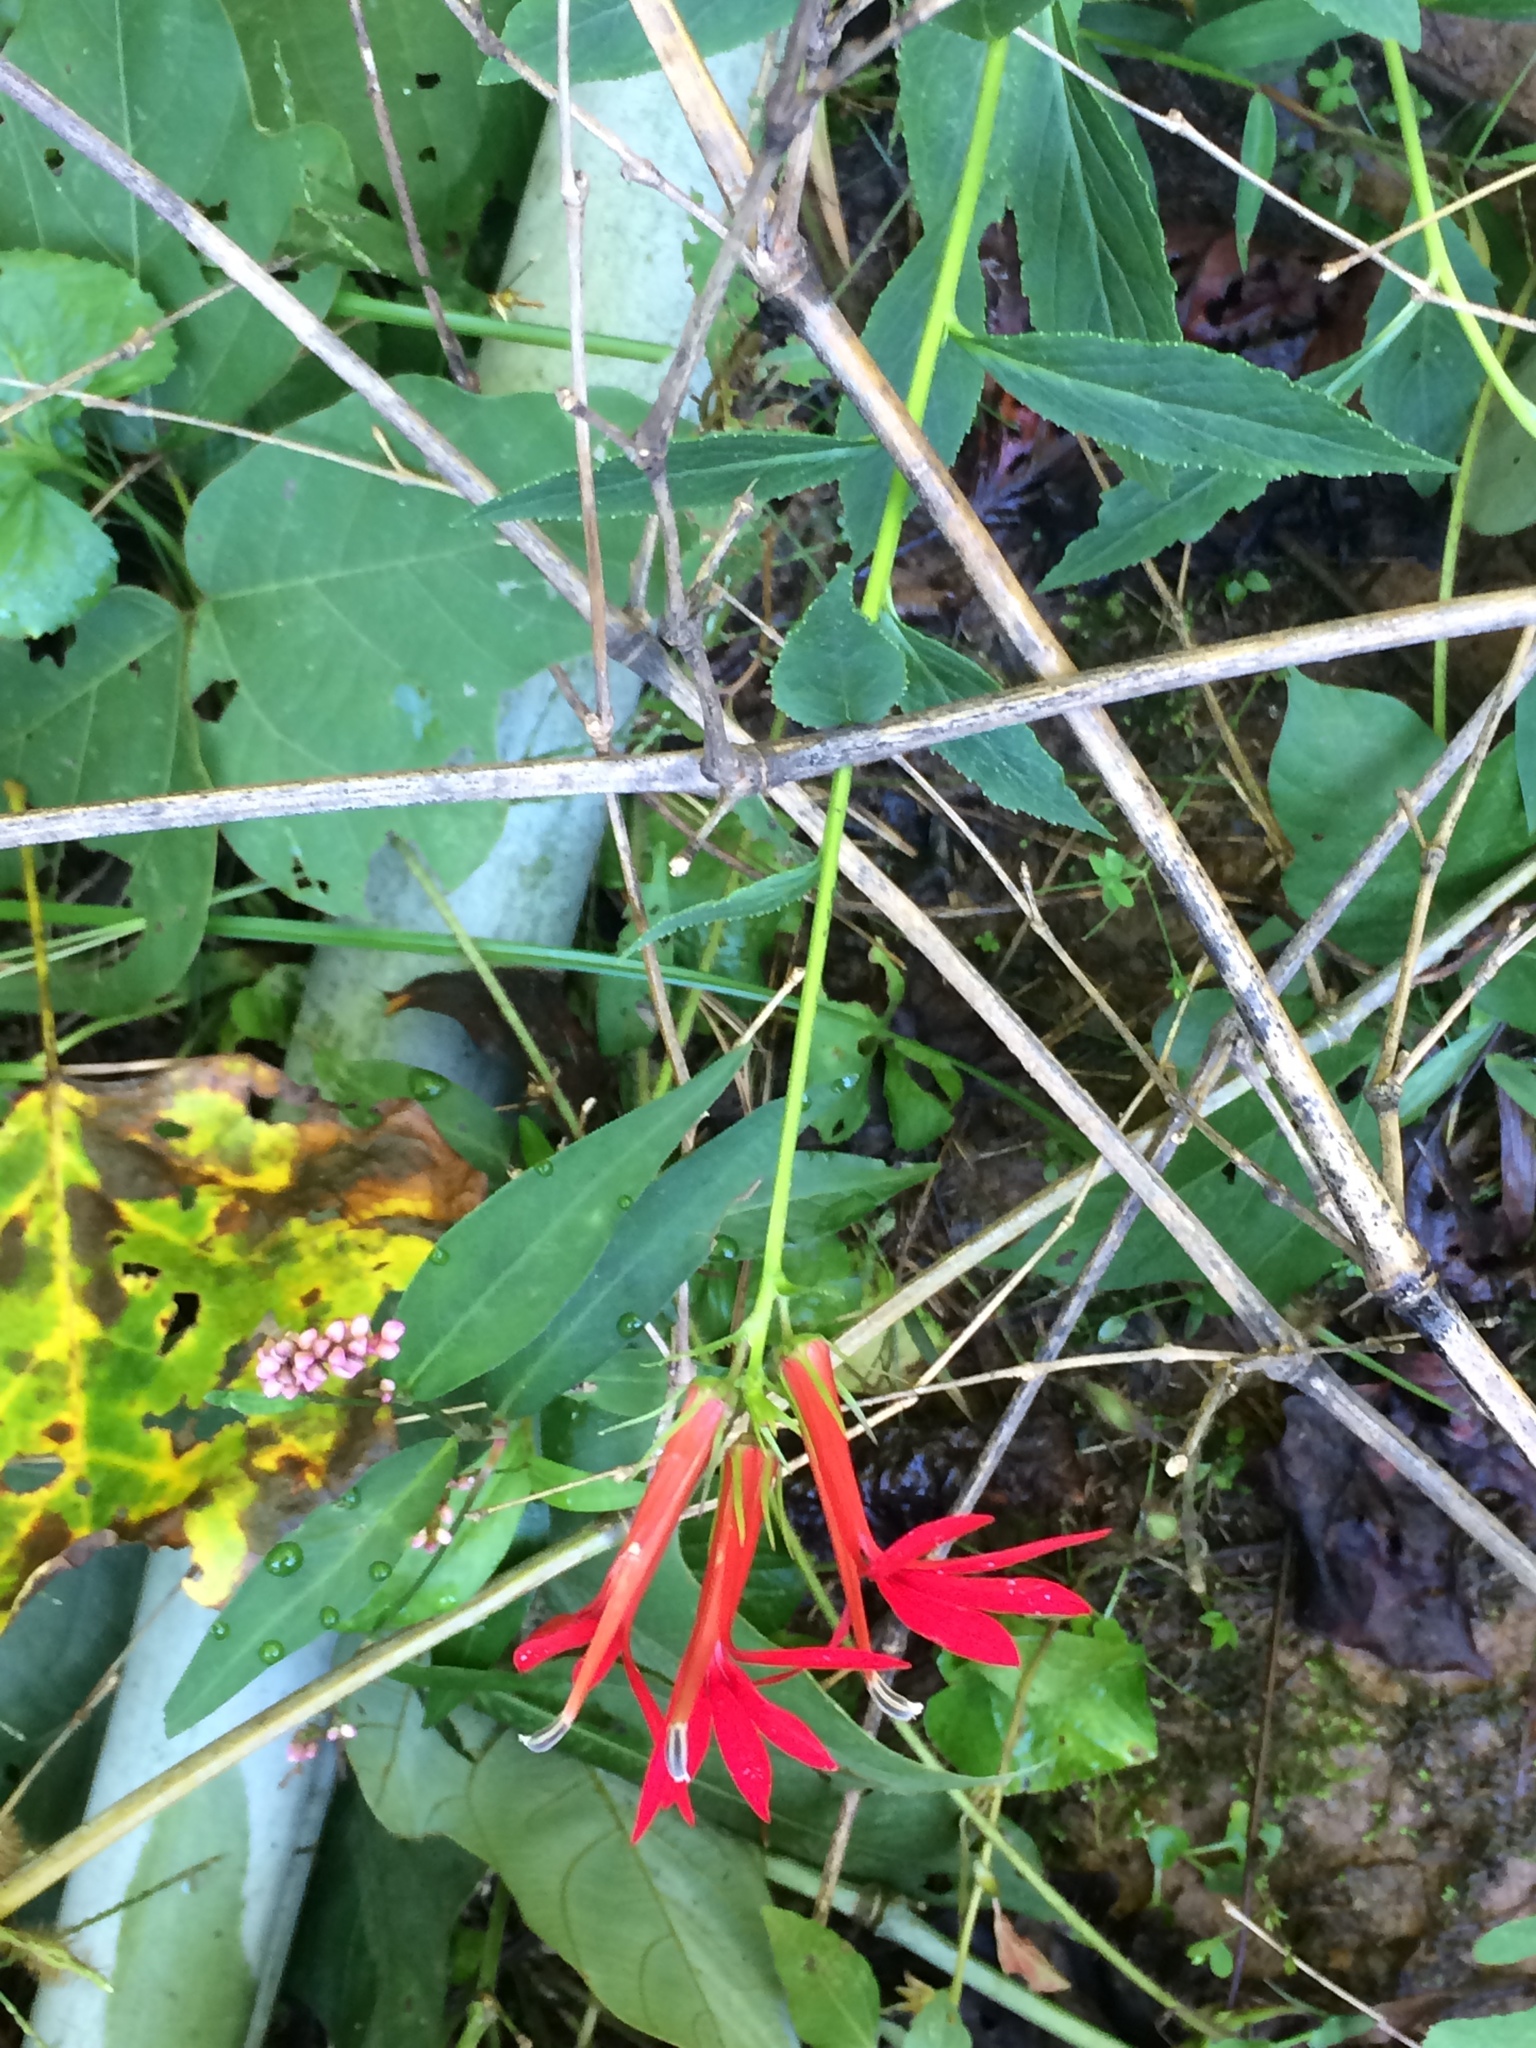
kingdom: Plantae
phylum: Tracheophyta
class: Magnoliopsida
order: Asterales
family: Campanulaceae
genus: Lobelia
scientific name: Lobelia cardinalis
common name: Cardinal flower
